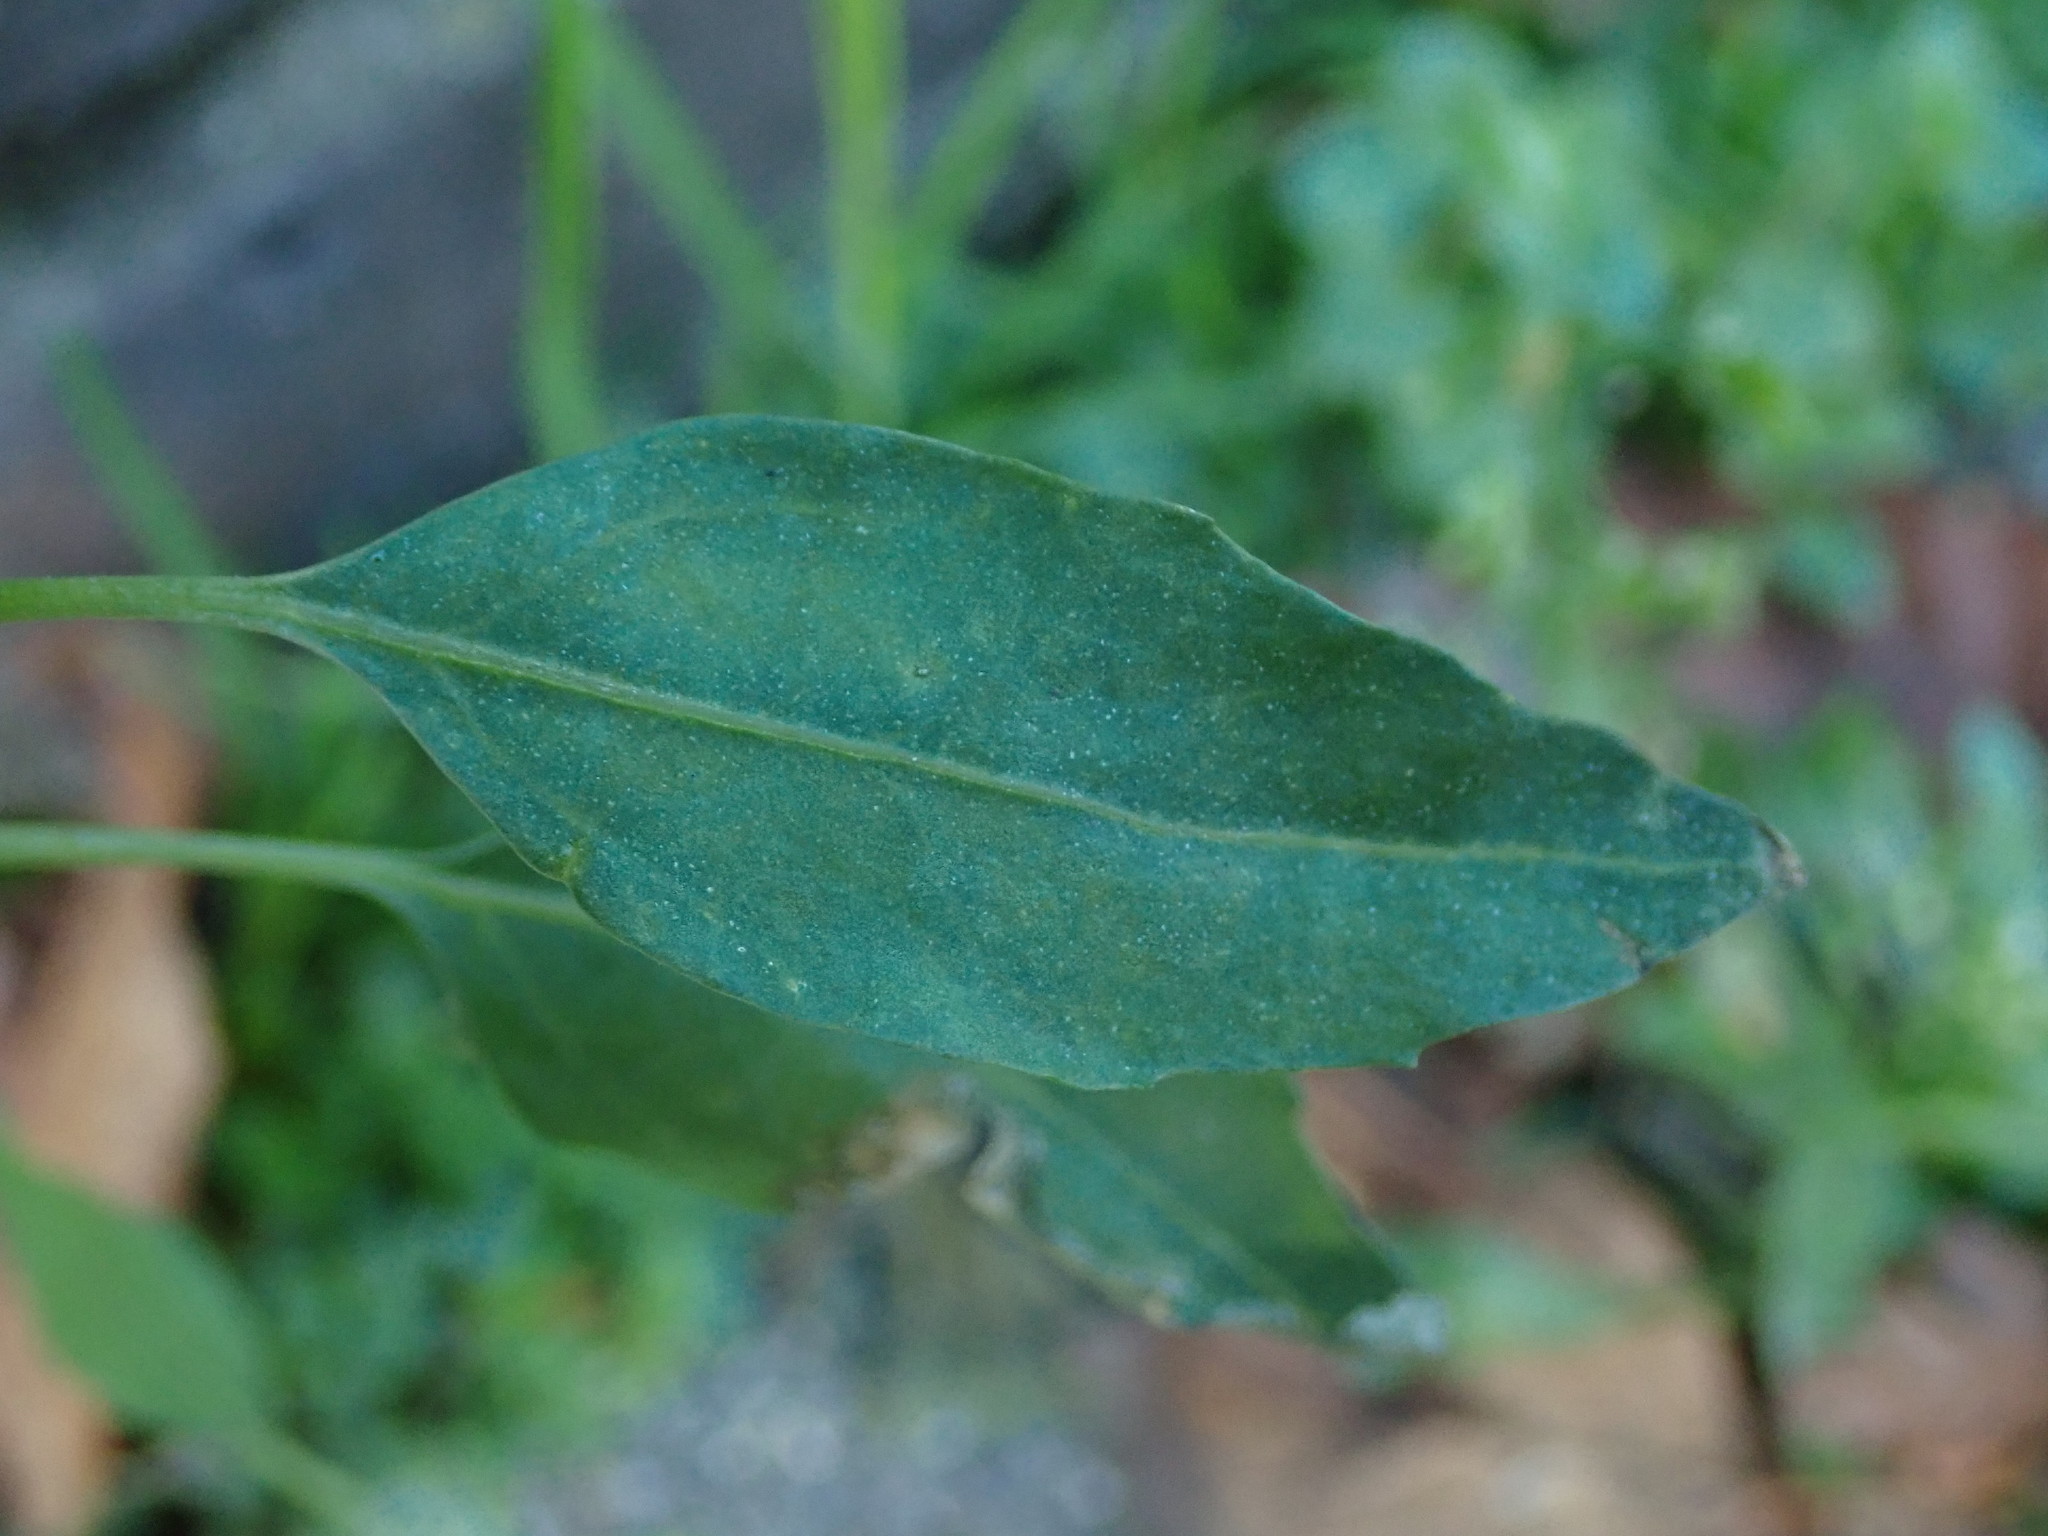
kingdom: Plantae
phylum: Tracheophyta
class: Magnoliopsida
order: Caryophyllales
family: Amaranthaceae
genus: Chenopodium
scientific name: Chenopodium album
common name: Fat-hen
